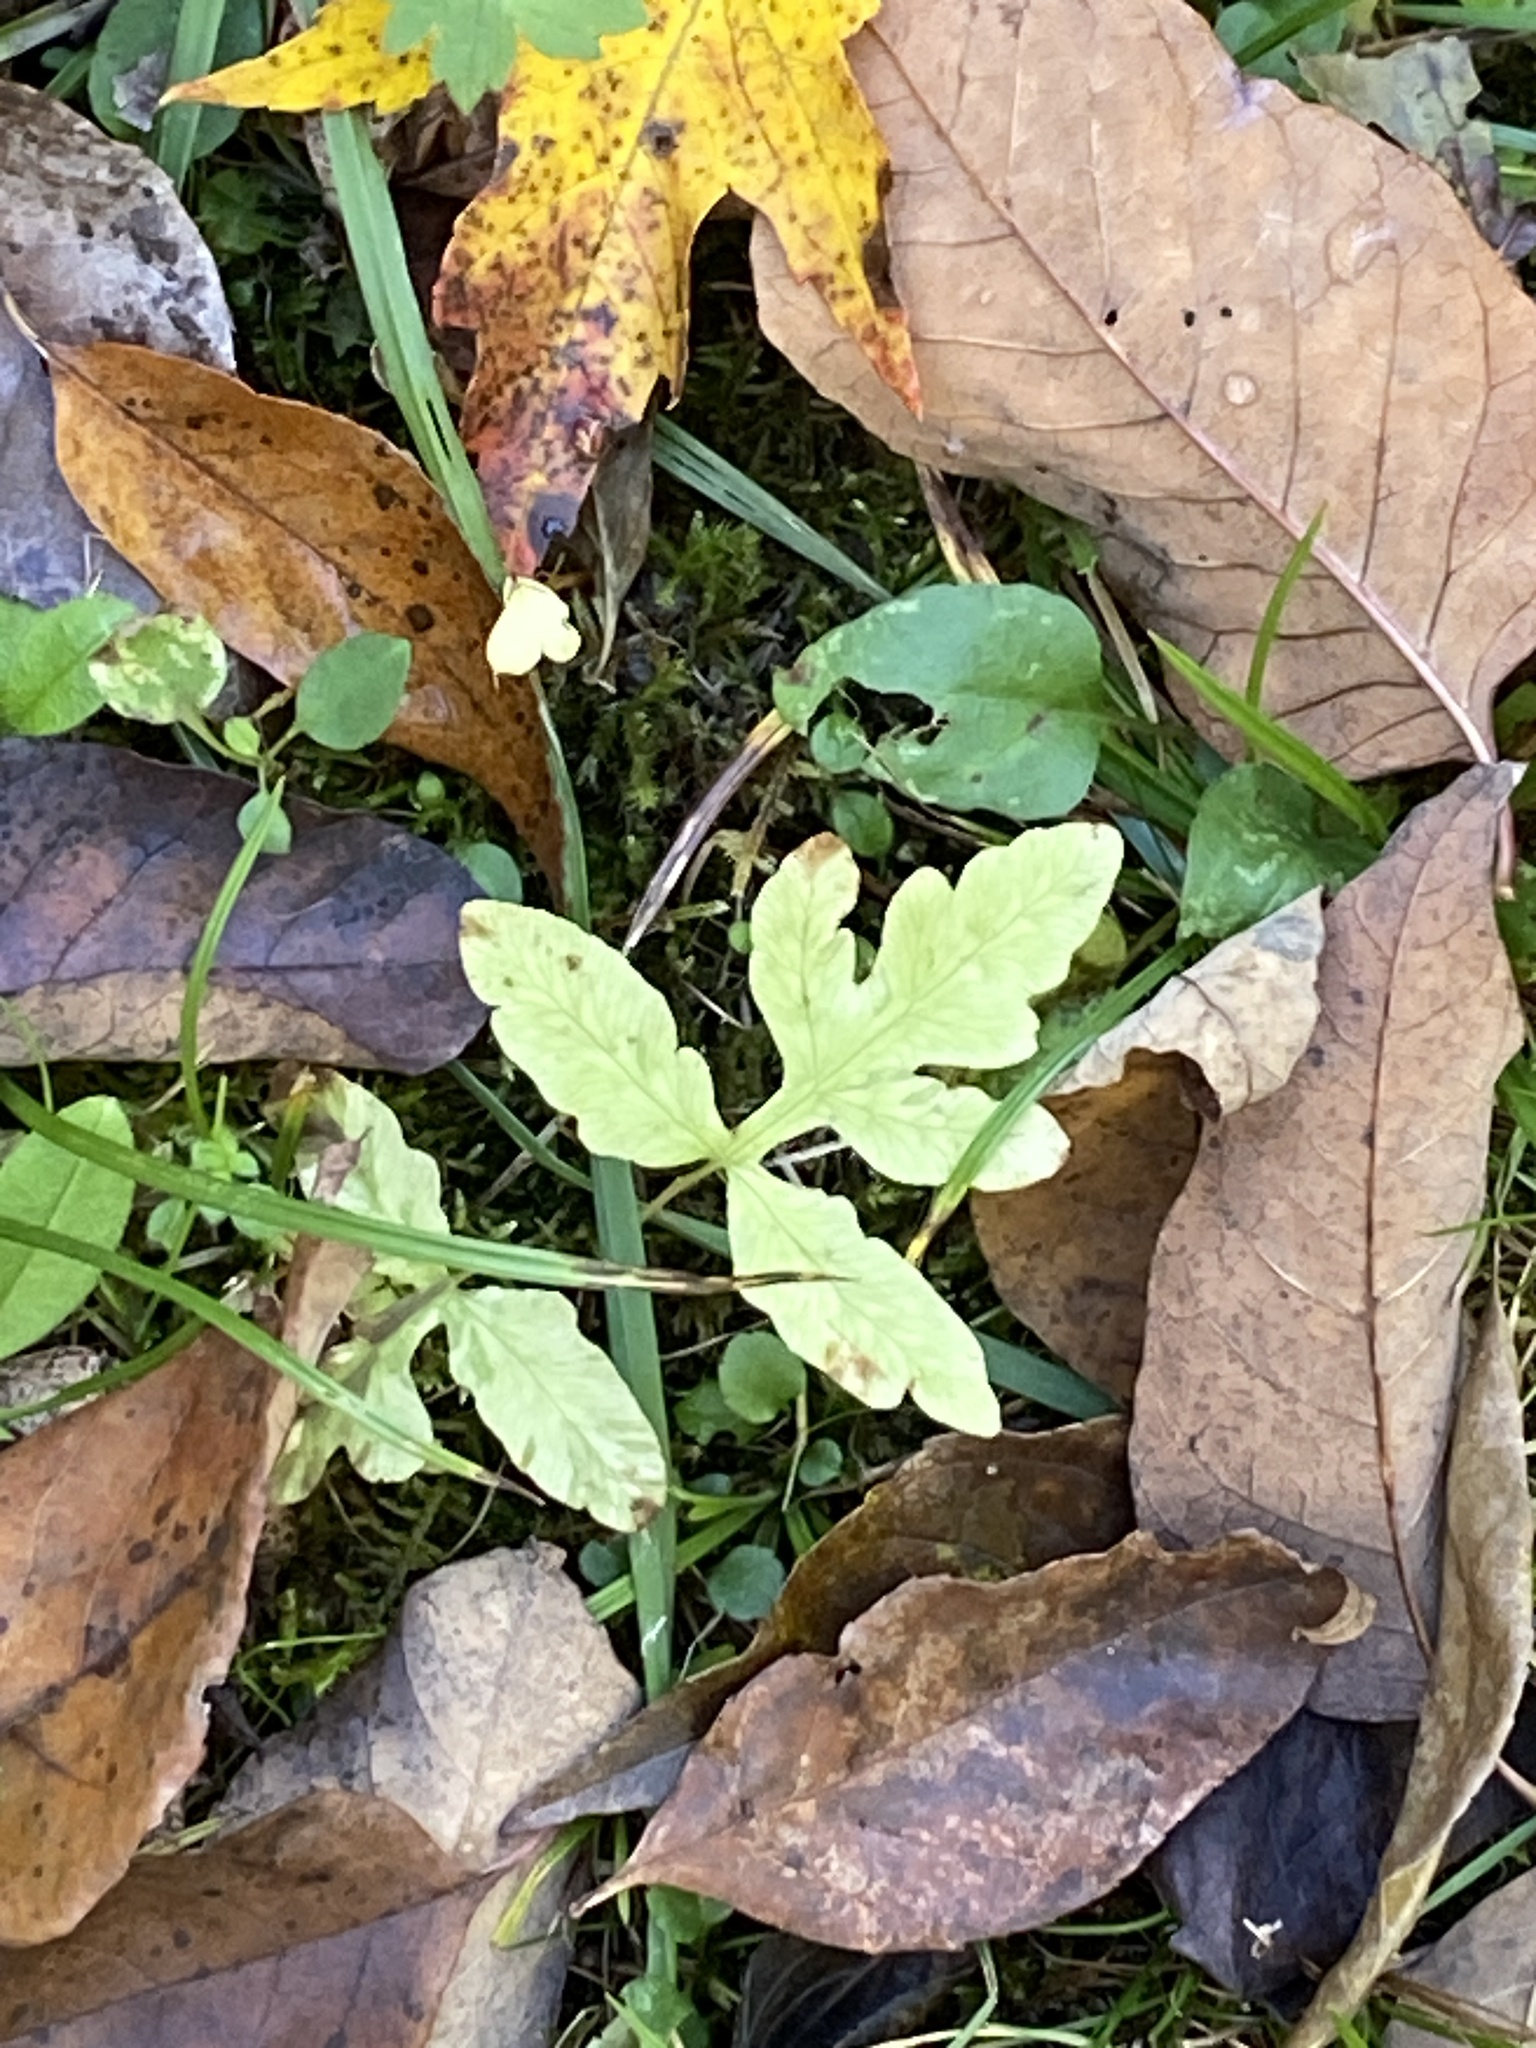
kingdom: Plantae
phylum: Tracheophyta
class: Polypodiopsida
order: Polypodiales
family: Onocleaceae
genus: Onoclea
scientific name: Onoclea sensibilis
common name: Sensitive fern
